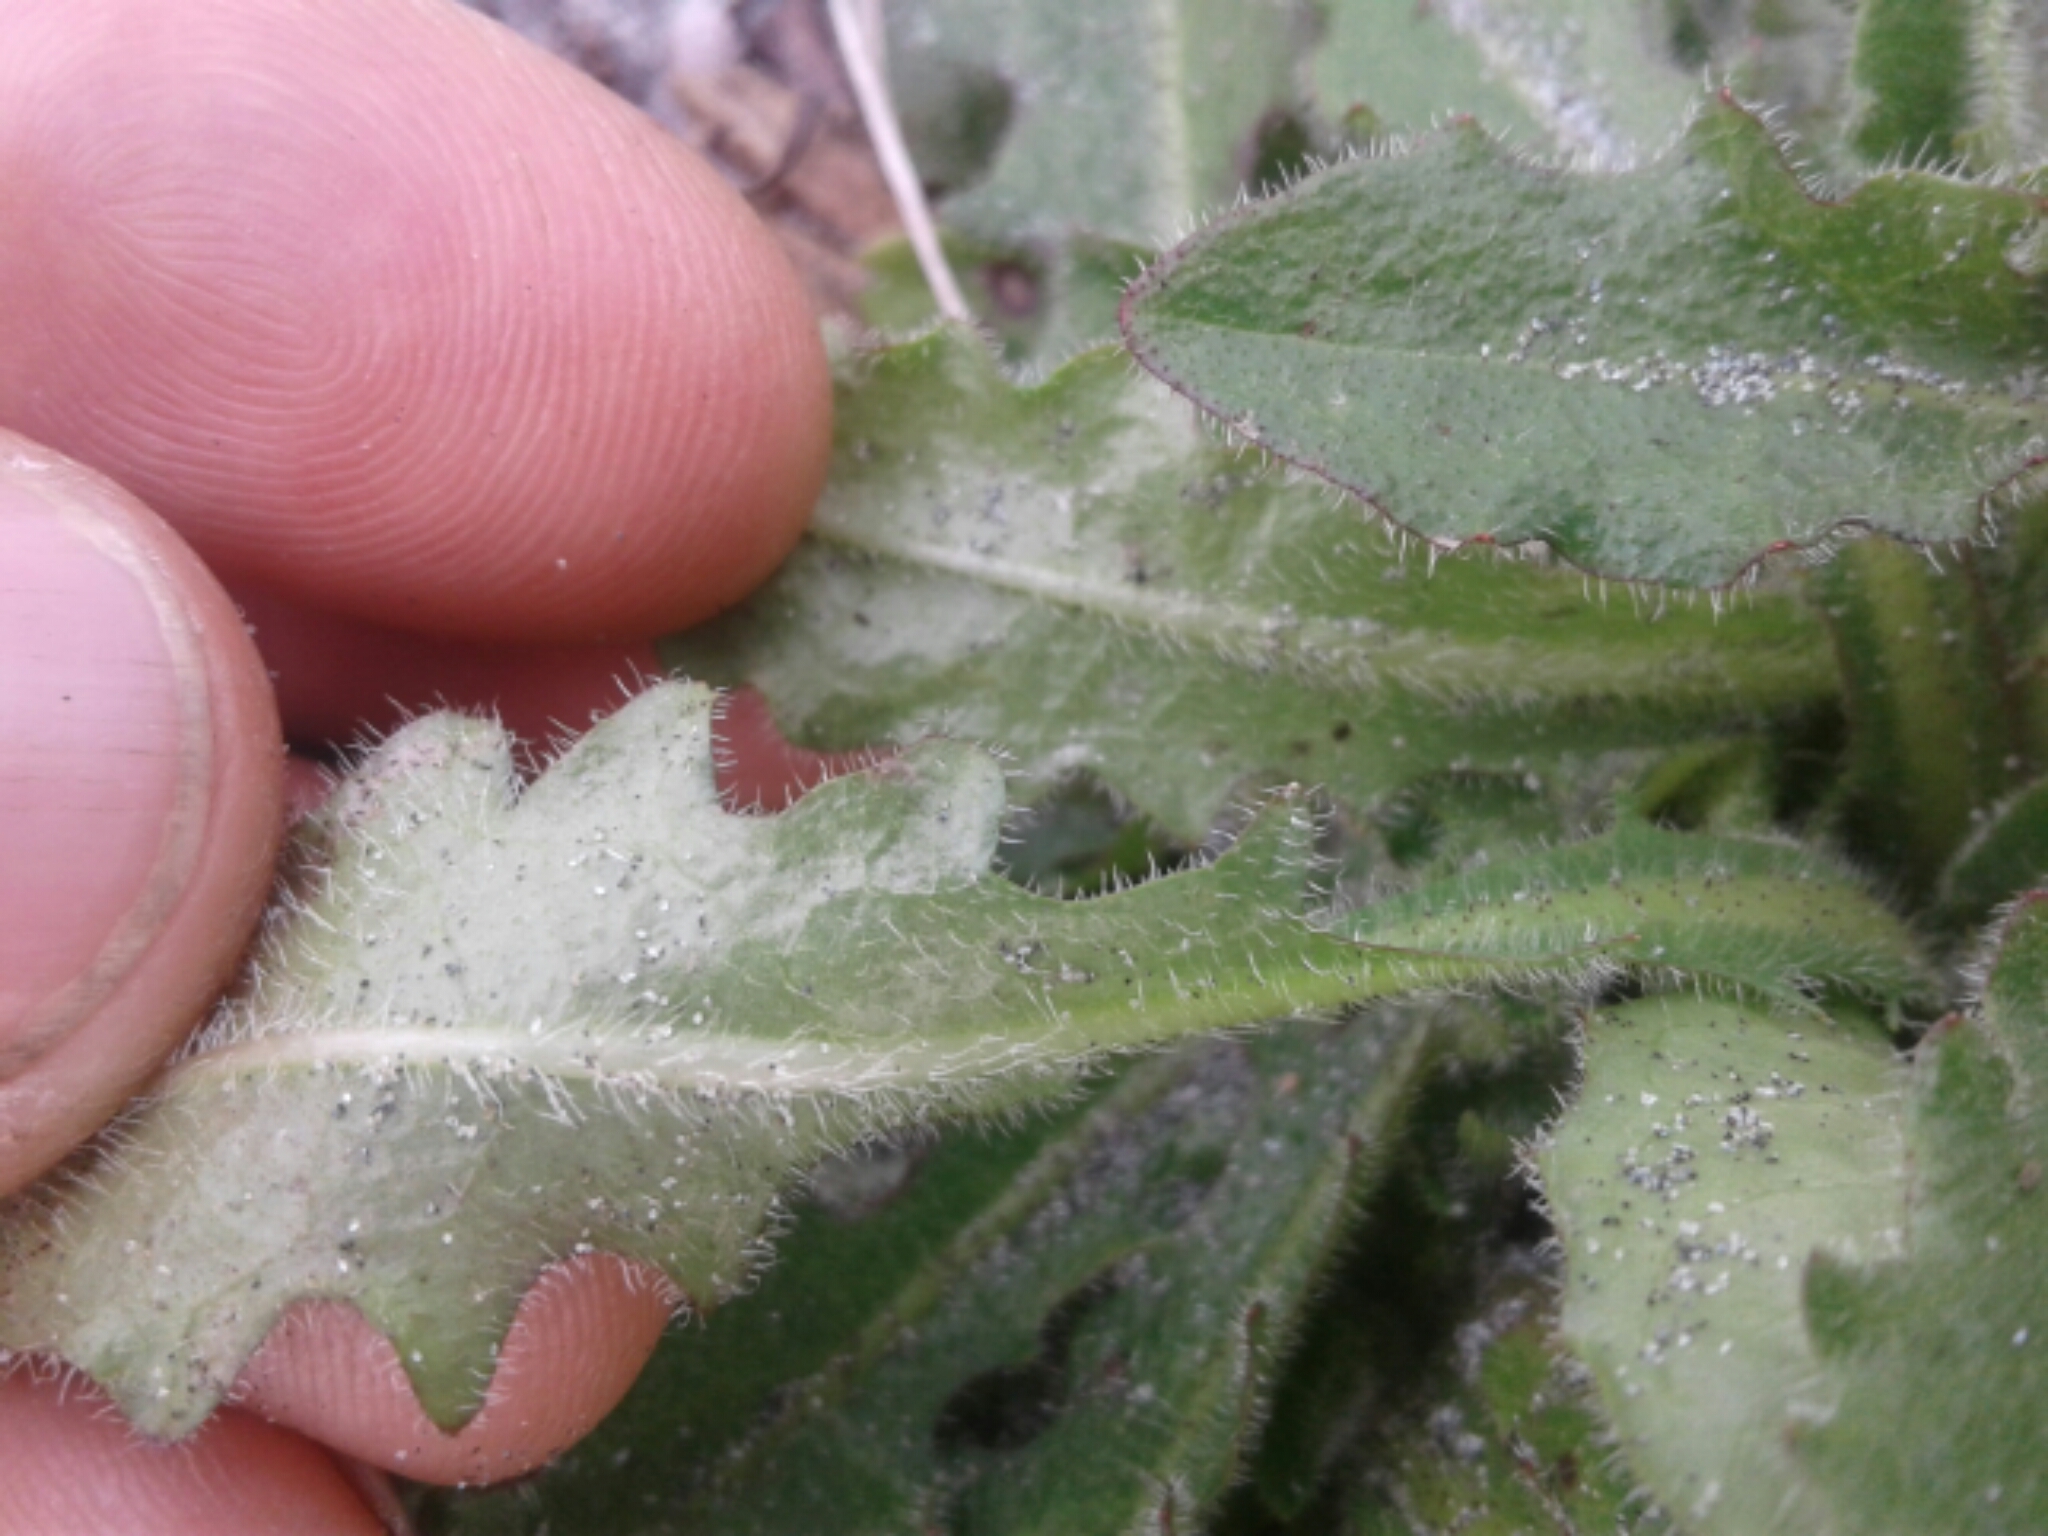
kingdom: Plantae
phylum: Tracheophyta
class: Magnoliopsida
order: Asterales
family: Asteraceae
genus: Hypochaeris
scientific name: Hypochaeris radicata
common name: Flatweed
